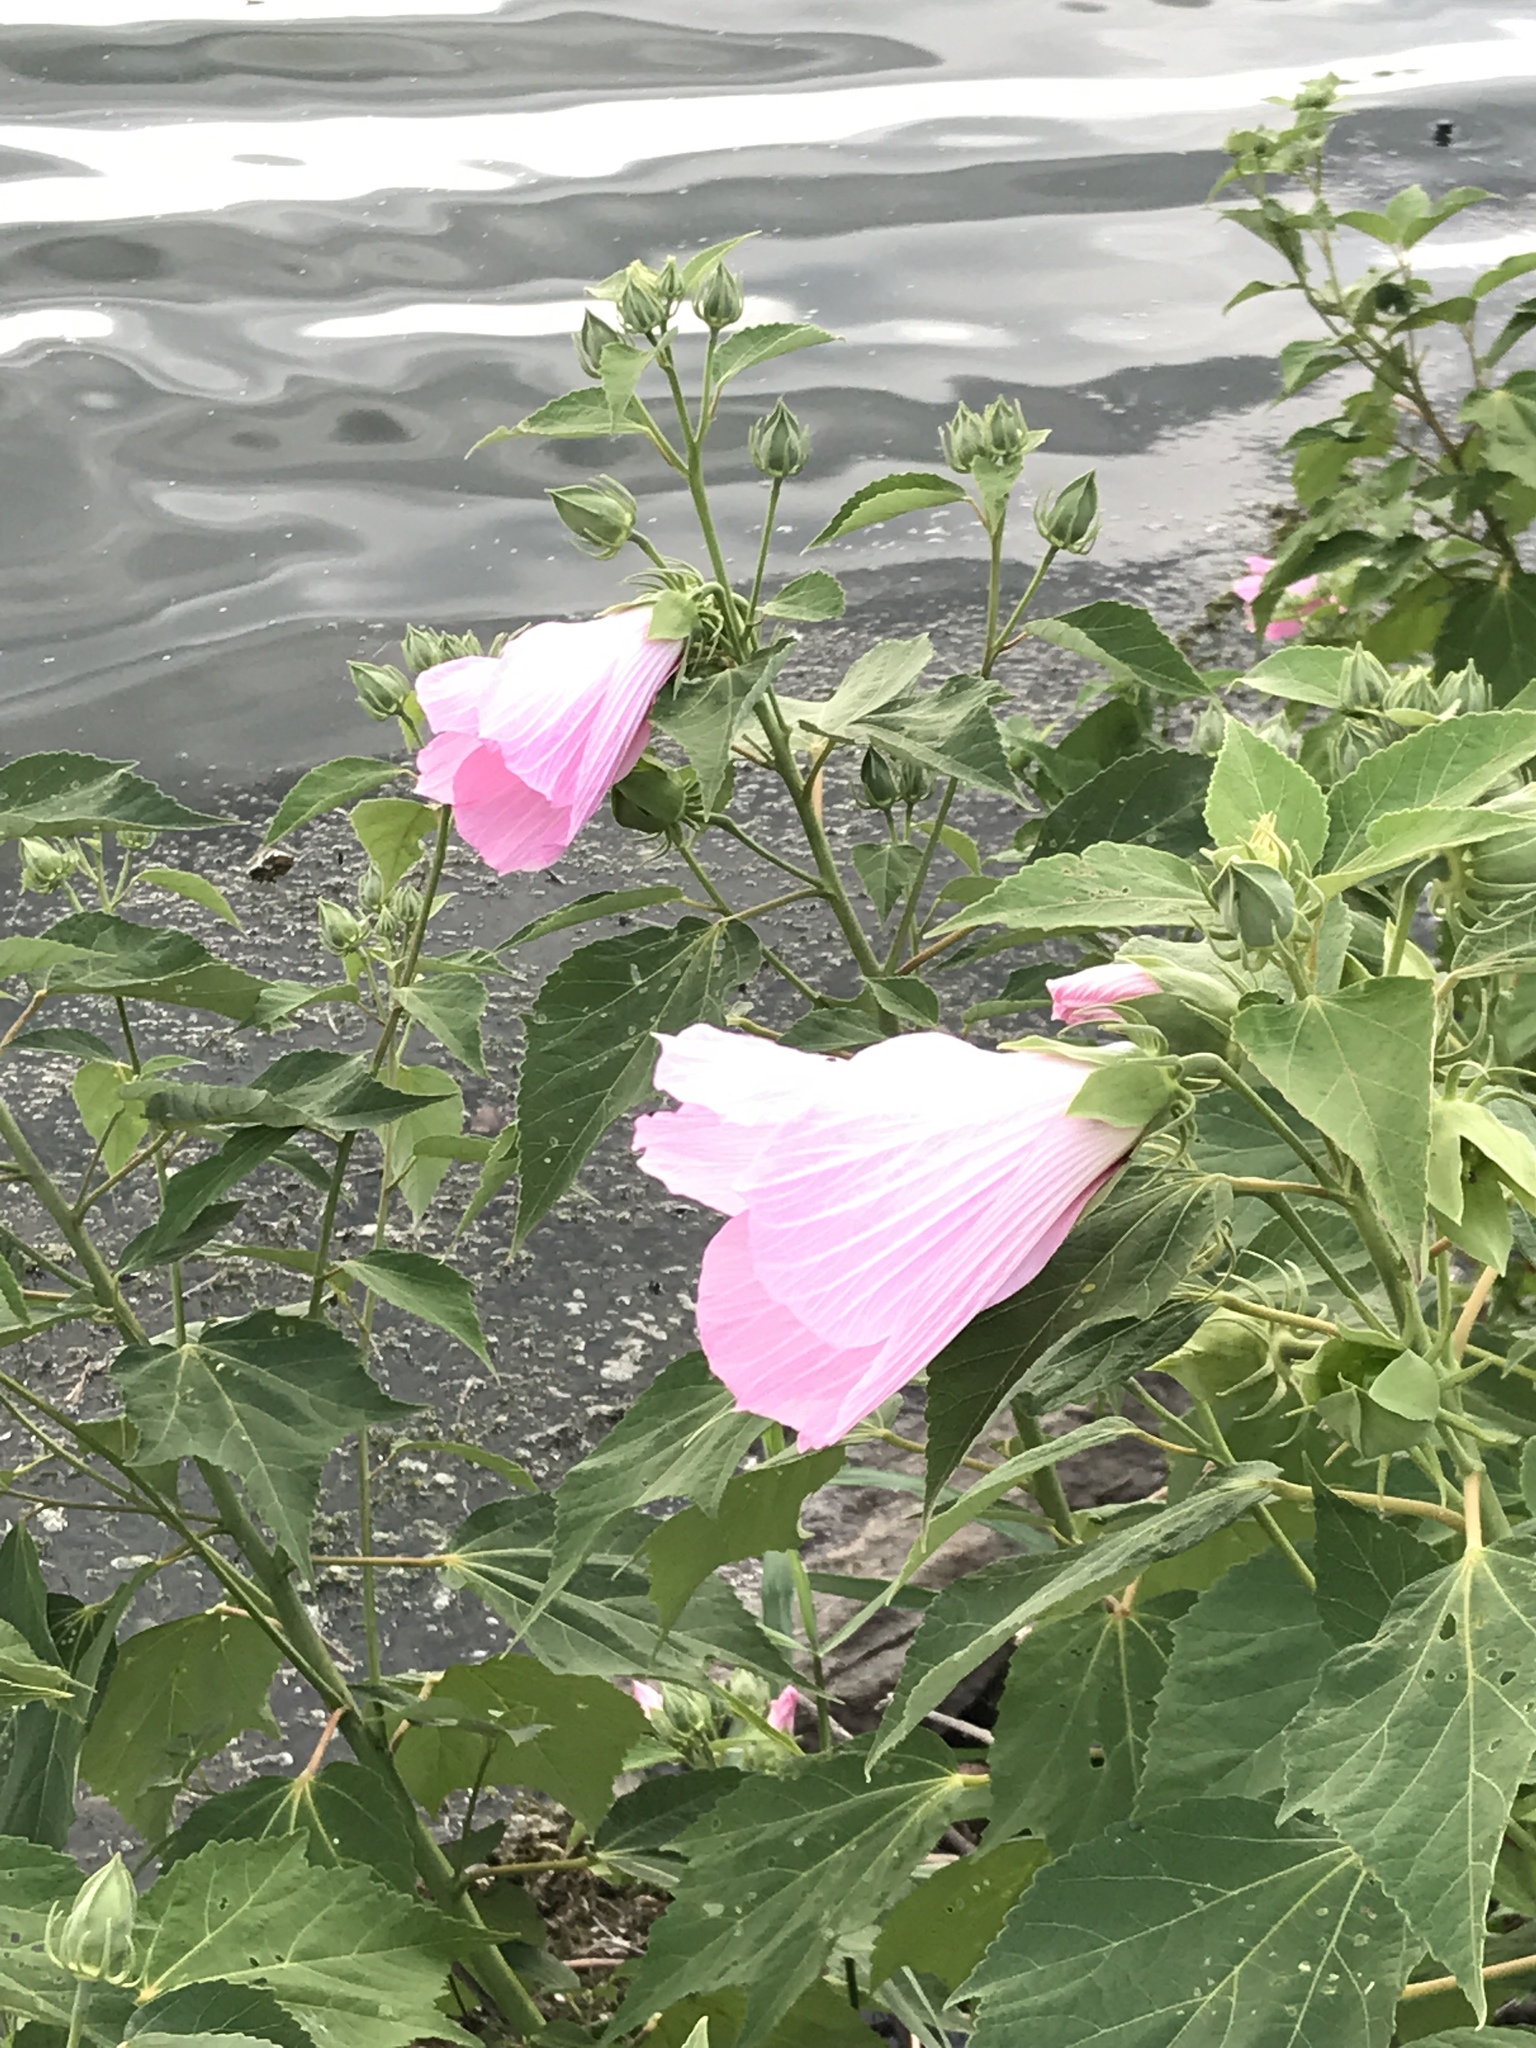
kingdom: Plantae
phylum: Tracheophyta
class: Magnoliopsida
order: Malvales
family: Malvaceae
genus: Hibiscus
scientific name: Hibiscus moscheutos
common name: Common rose-mallow
